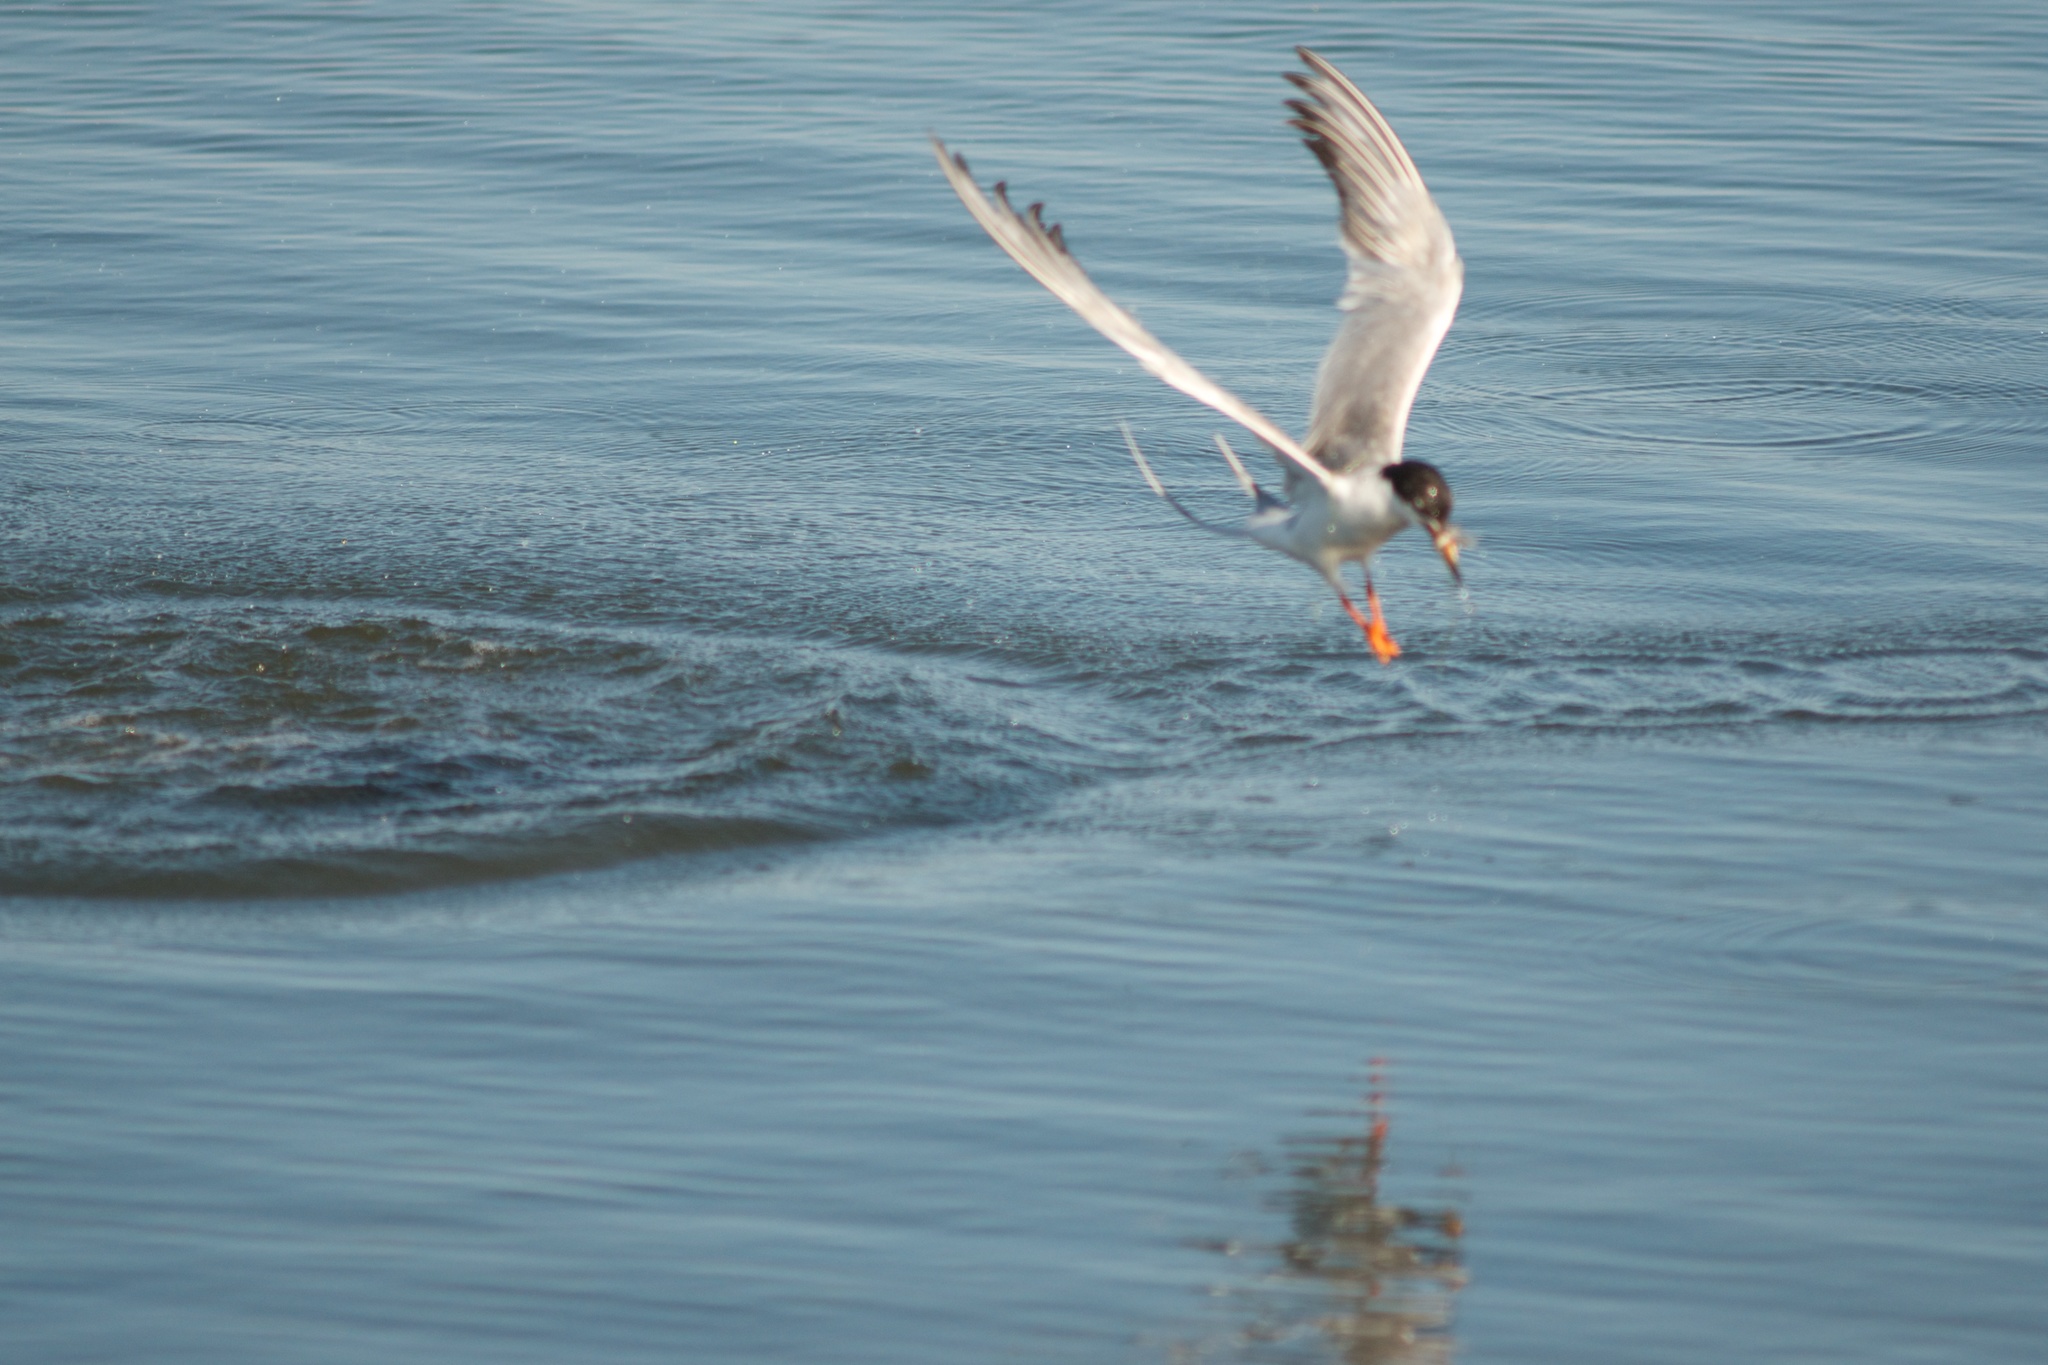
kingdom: Animalia
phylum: Chordata
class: Aves
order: Charadriiformes
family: Laridae
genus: Sterna
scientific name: Sterna forsteri
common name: Forster's tern
